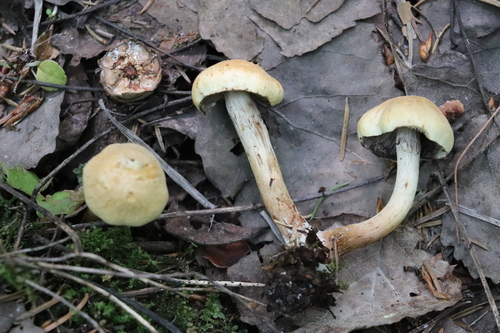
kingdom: Fungi
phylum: Basidiomycota
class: Agaricomycetes
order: Agaricales
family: Strophariaceae
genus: Hypholoma
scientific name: Hypholoma capnoides
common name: Conifer tuft
